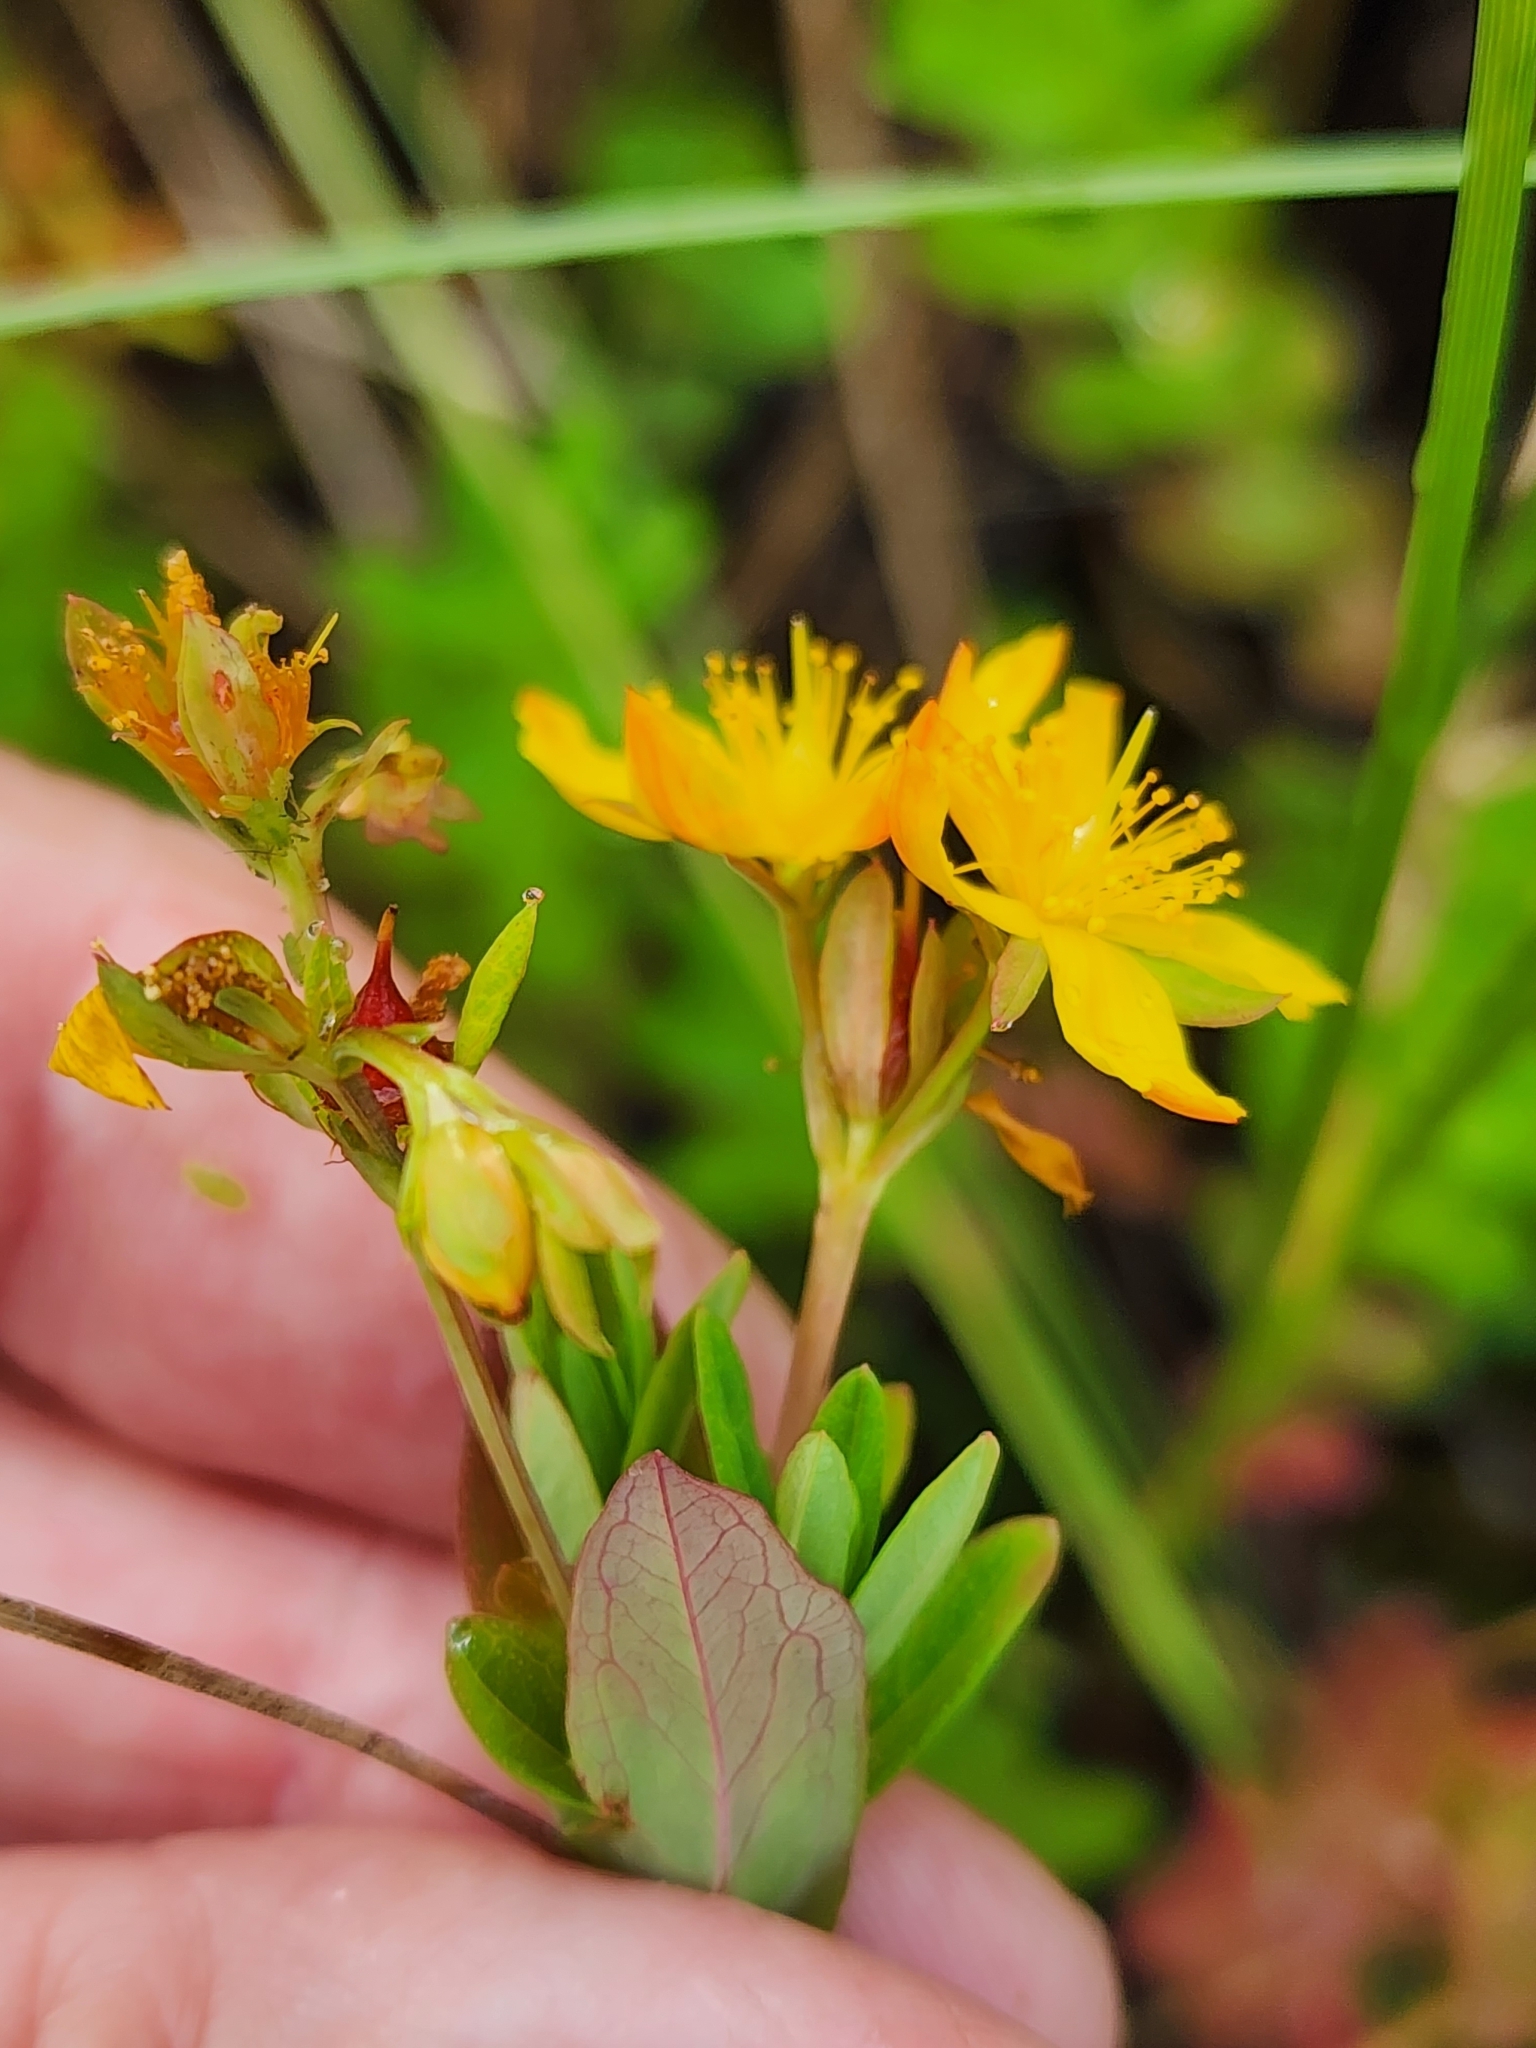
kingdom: Plantae
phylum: Tracheophyta
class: Magnoliopsida
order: Malpighiales
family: Hypericaceae
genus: Hypericum
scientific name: Hypericum ellipticum
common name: Elliptic st. john's-wort
